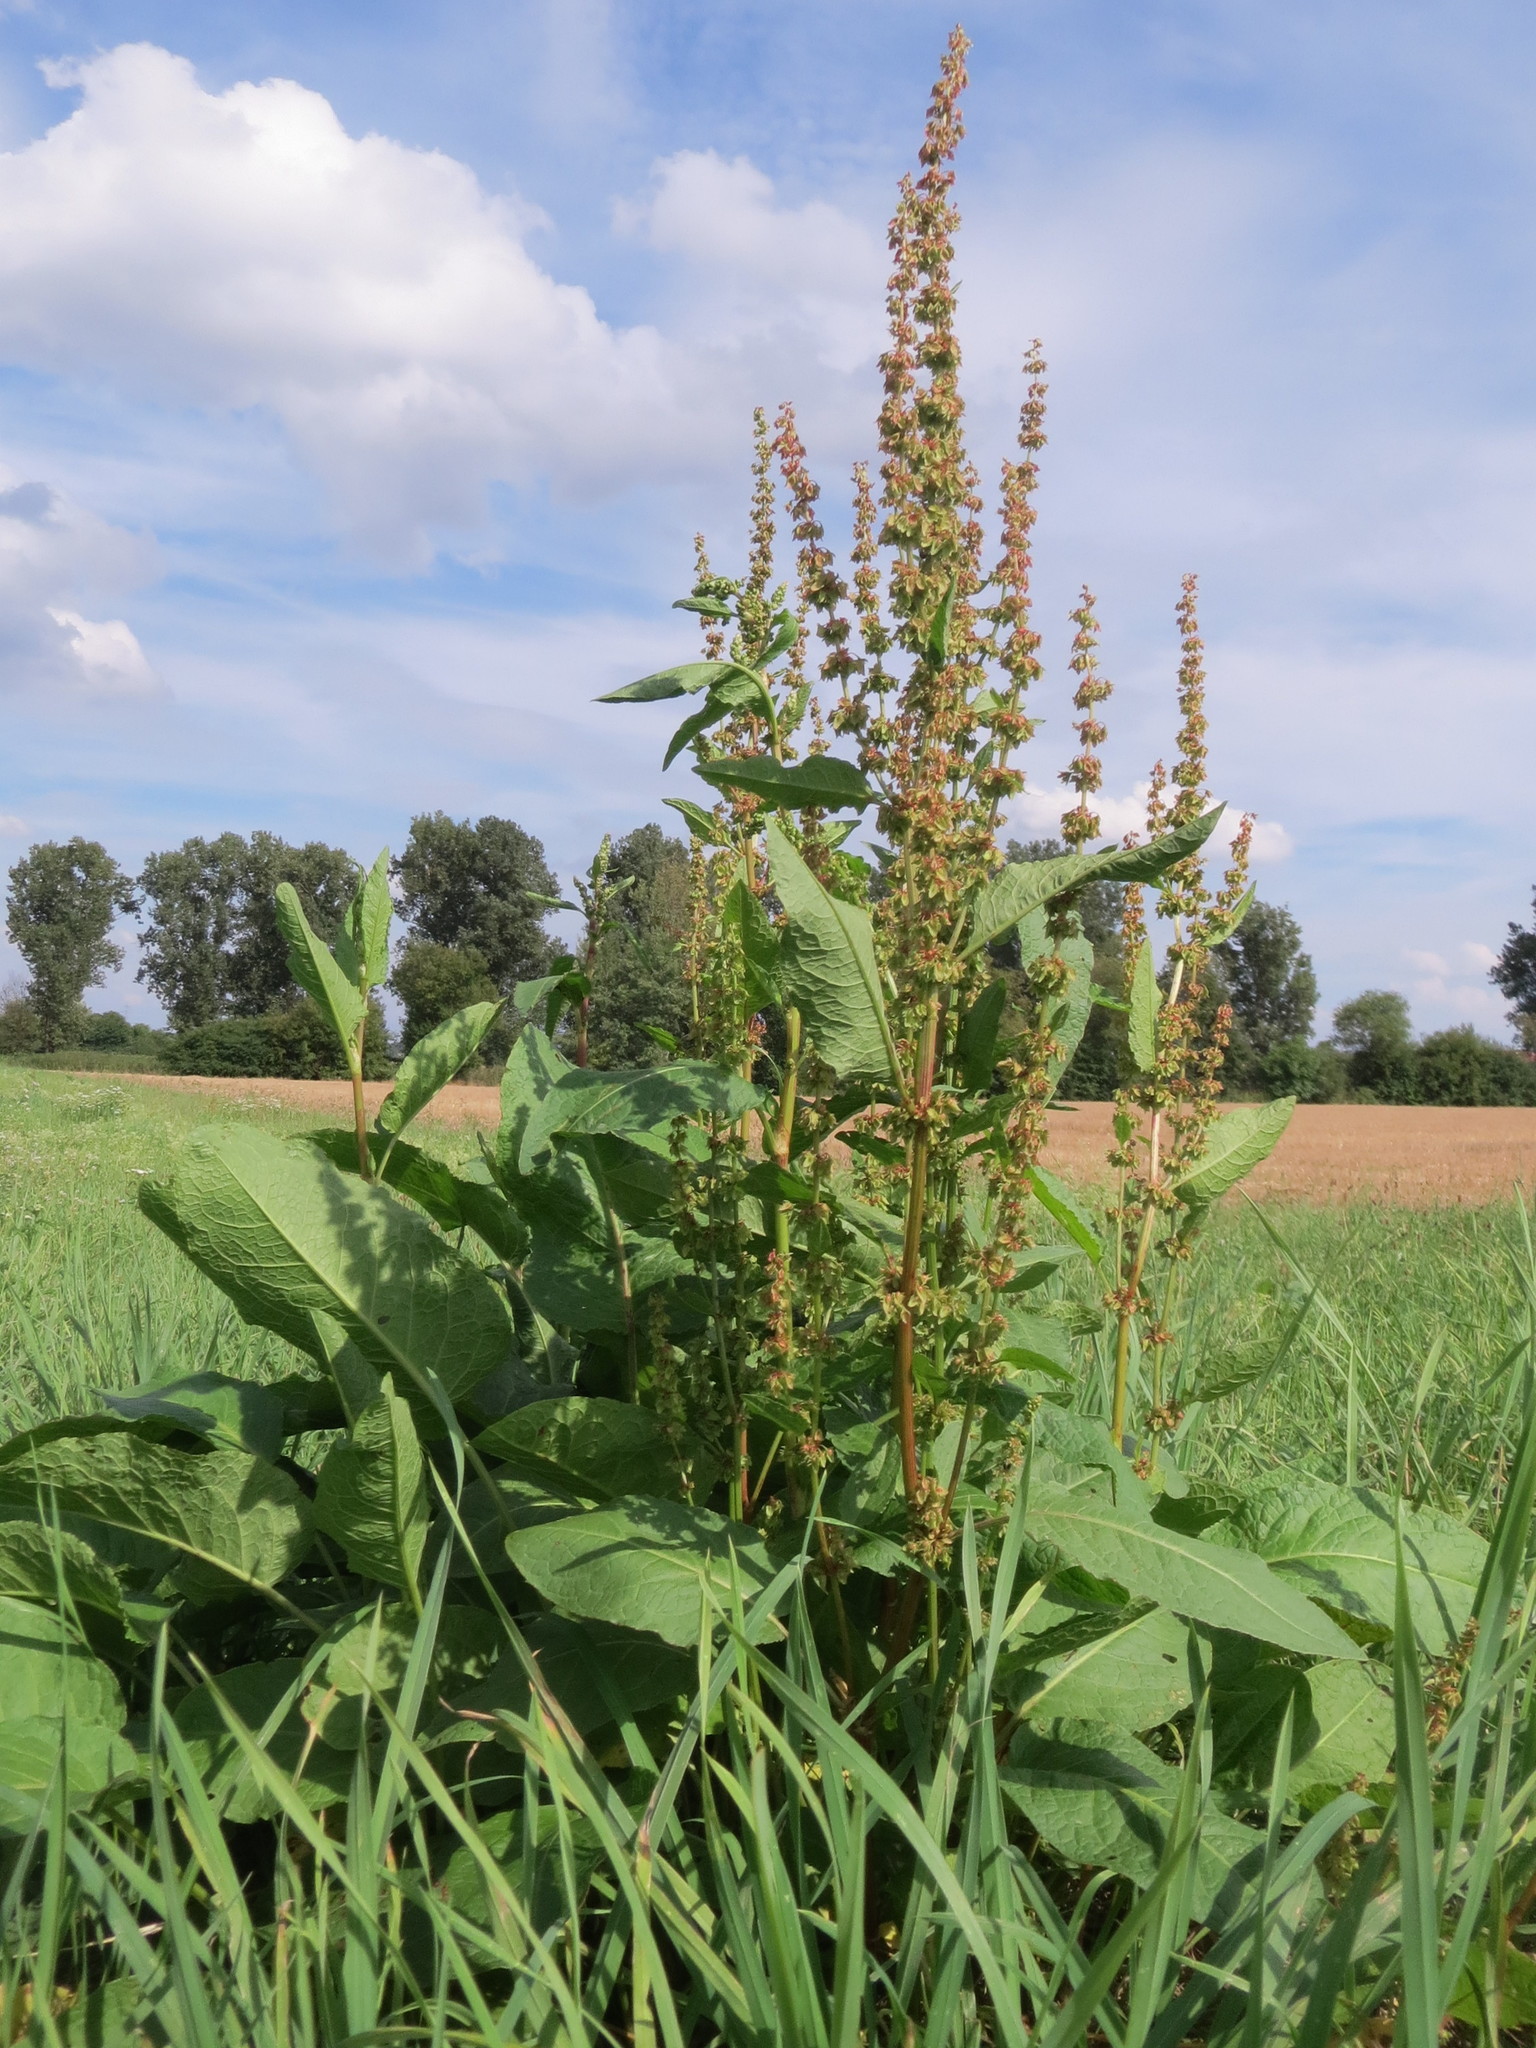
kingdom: Plantae
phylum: Tracheophyta
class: Magnoliopsida
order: Caryophyllales
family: Polygonaceae
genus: Rumex
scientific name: Rumex obtusifolius
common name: Bitter dock
